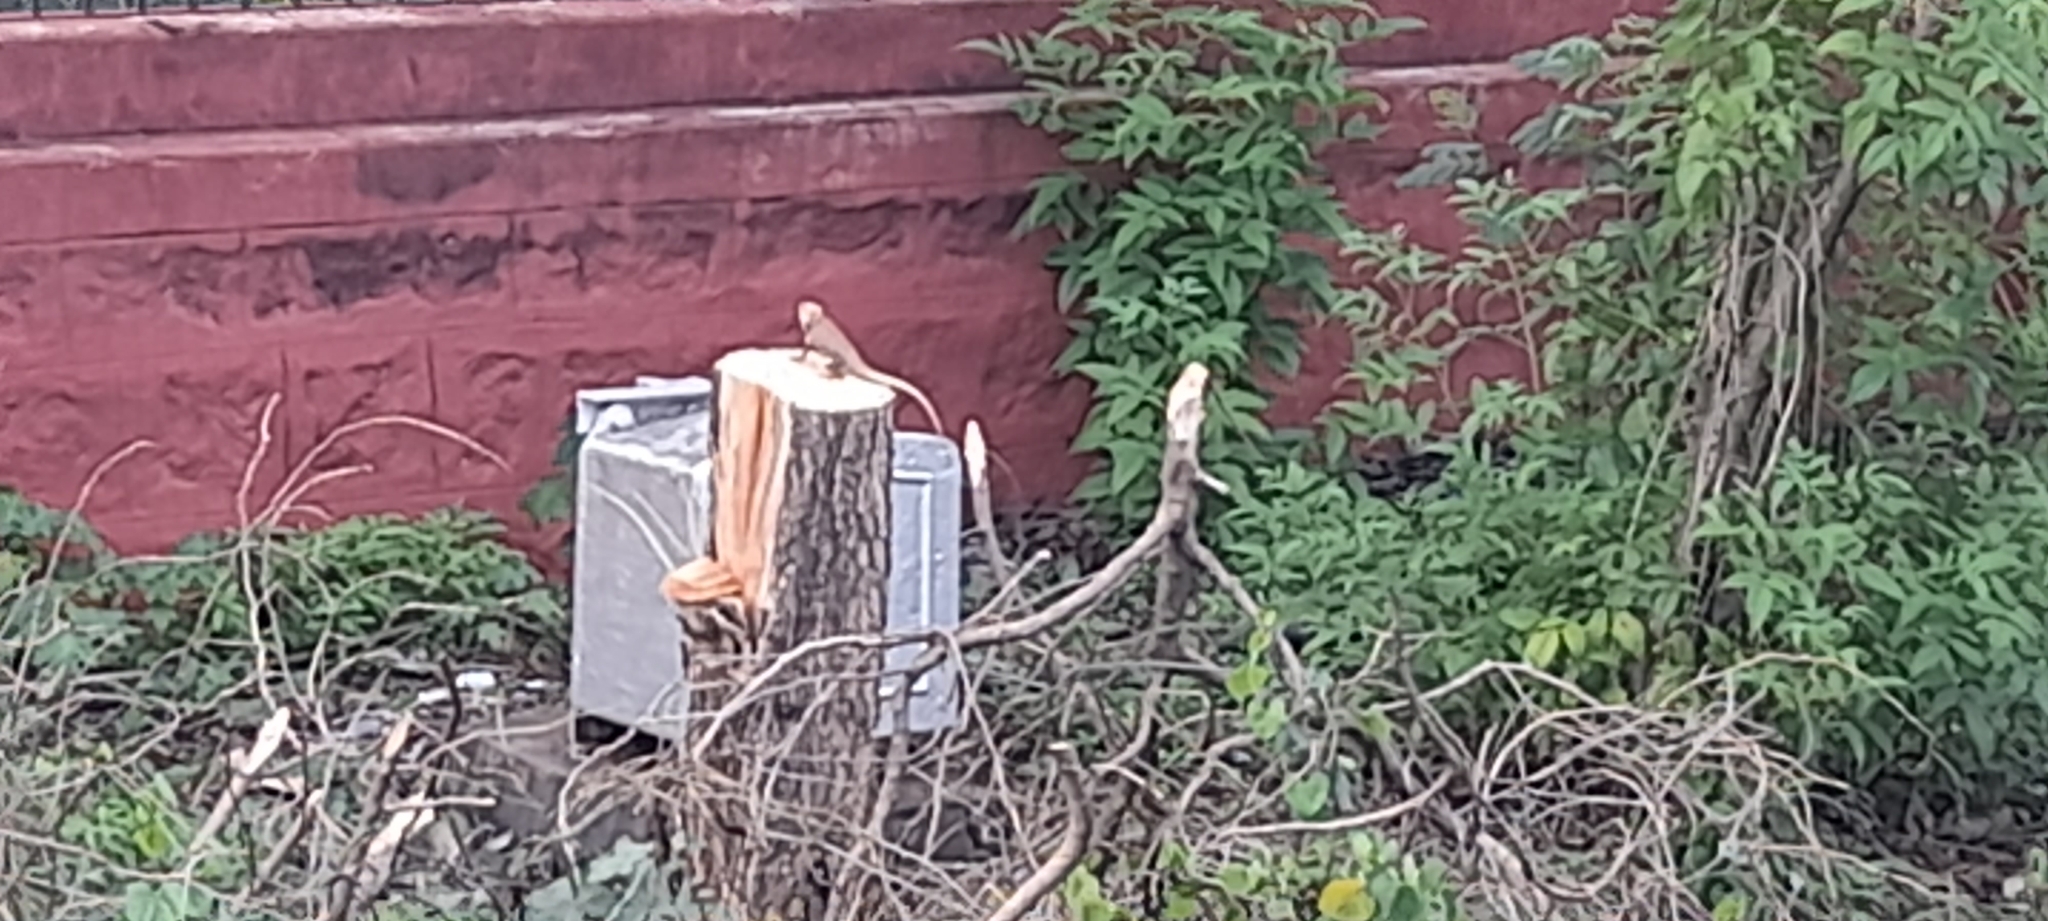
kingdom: Animalia
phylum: Chordata
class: Squamata
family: Agamidae
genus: Calotes
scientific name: Calotes versicolor
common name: Oriental garden lizard
